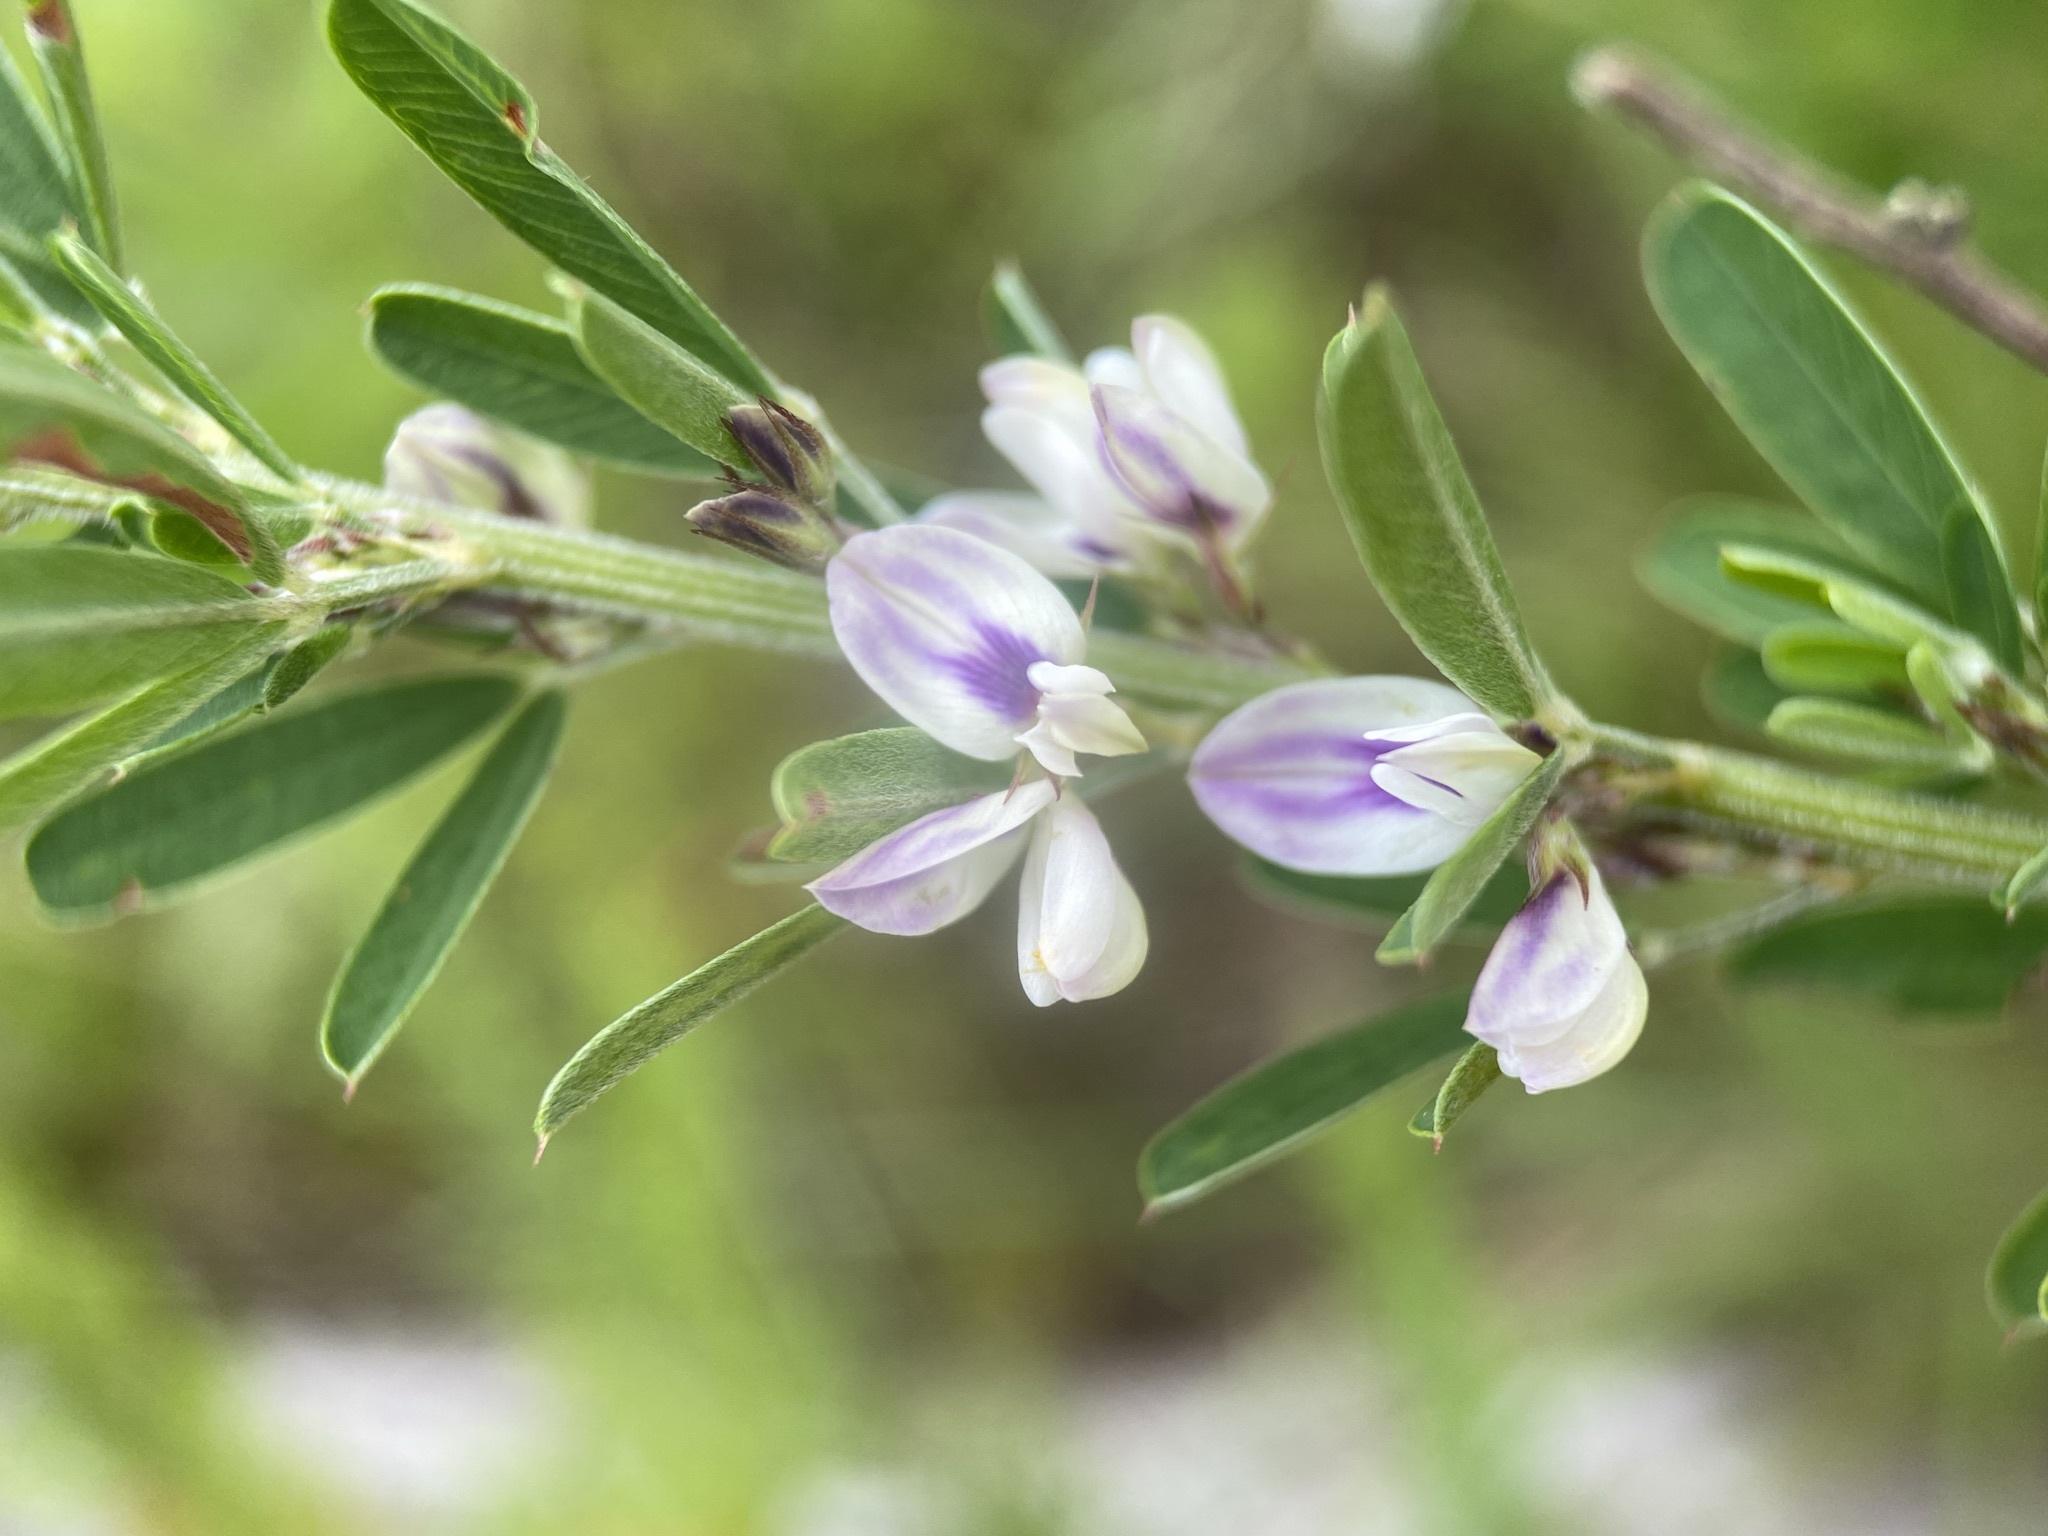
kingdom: Plantae
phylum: Tracheophyta
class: Magnoliopsida
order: Fabales
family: Fabaceae
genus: Lespedeza
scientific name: Lespedeza cuneata
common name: Chinese bush-clover
